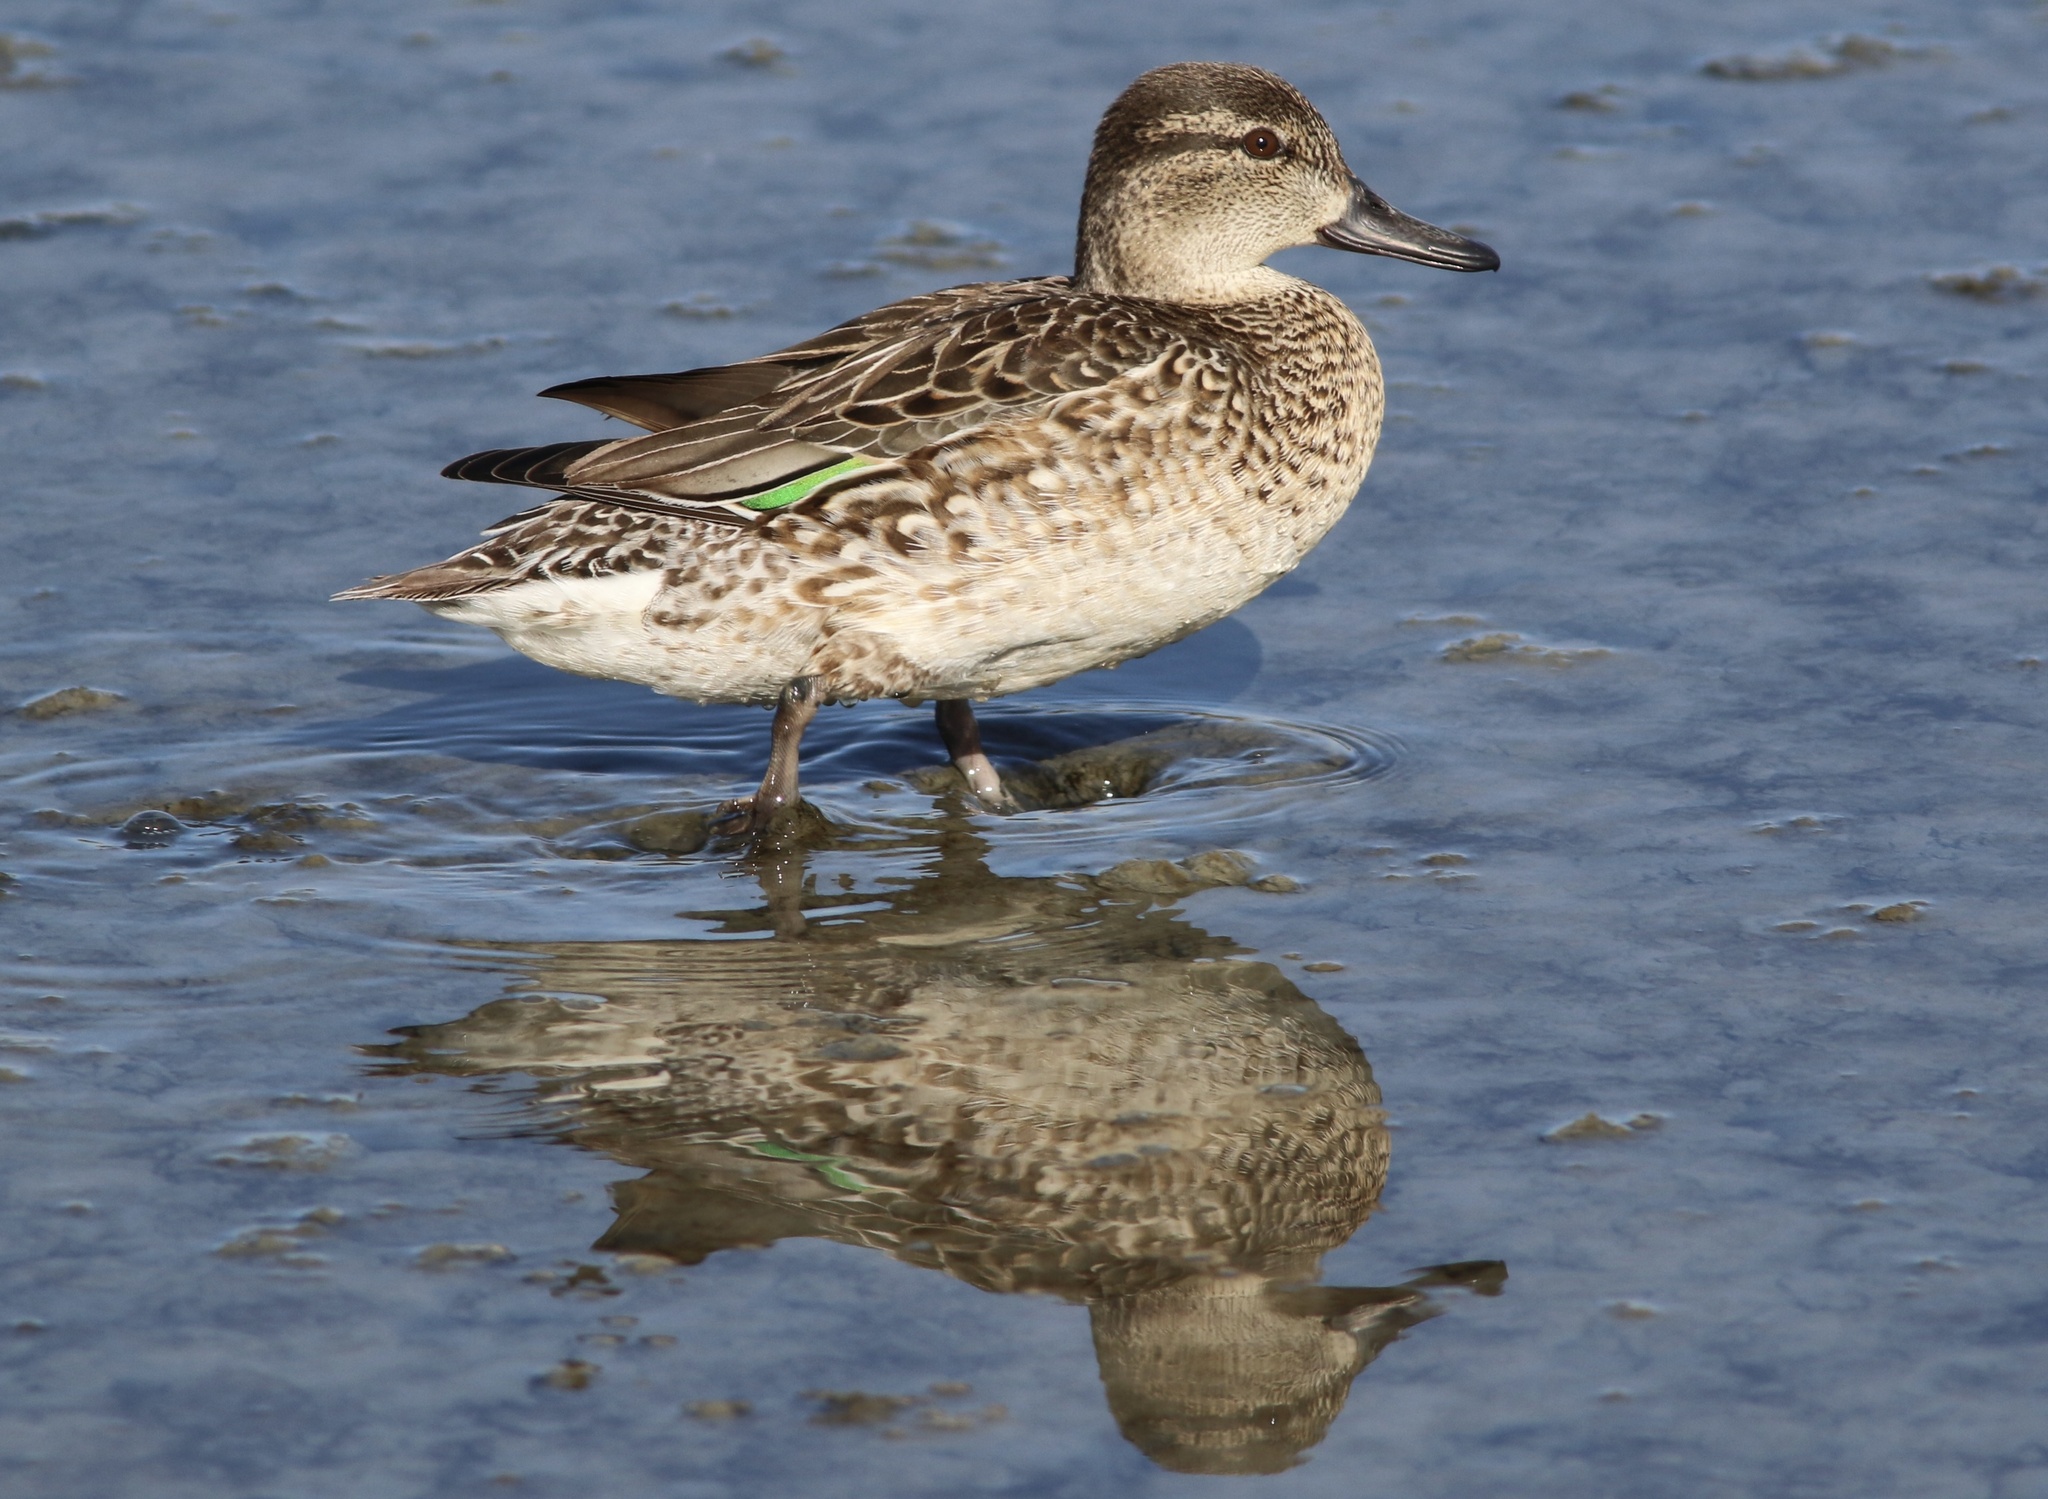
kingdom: Animalia
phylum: Chordata
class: Aves
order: Anseriformes
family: Anatidae
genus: Anas
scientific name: Anas crecca
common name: Eurasian teal
